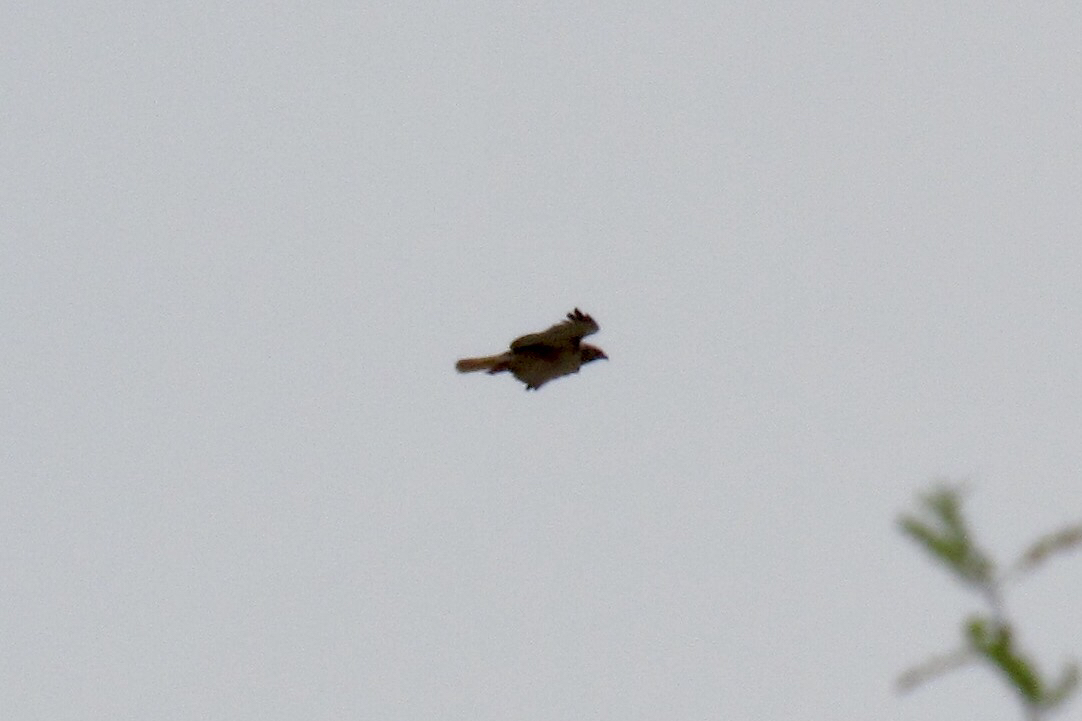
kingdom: Animalia
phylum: Chordata
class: Aves
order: Accipitriformes
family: Accipitridae
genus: Buteo
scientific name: Buteo jamaicensis
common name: Red-tailed hawk
